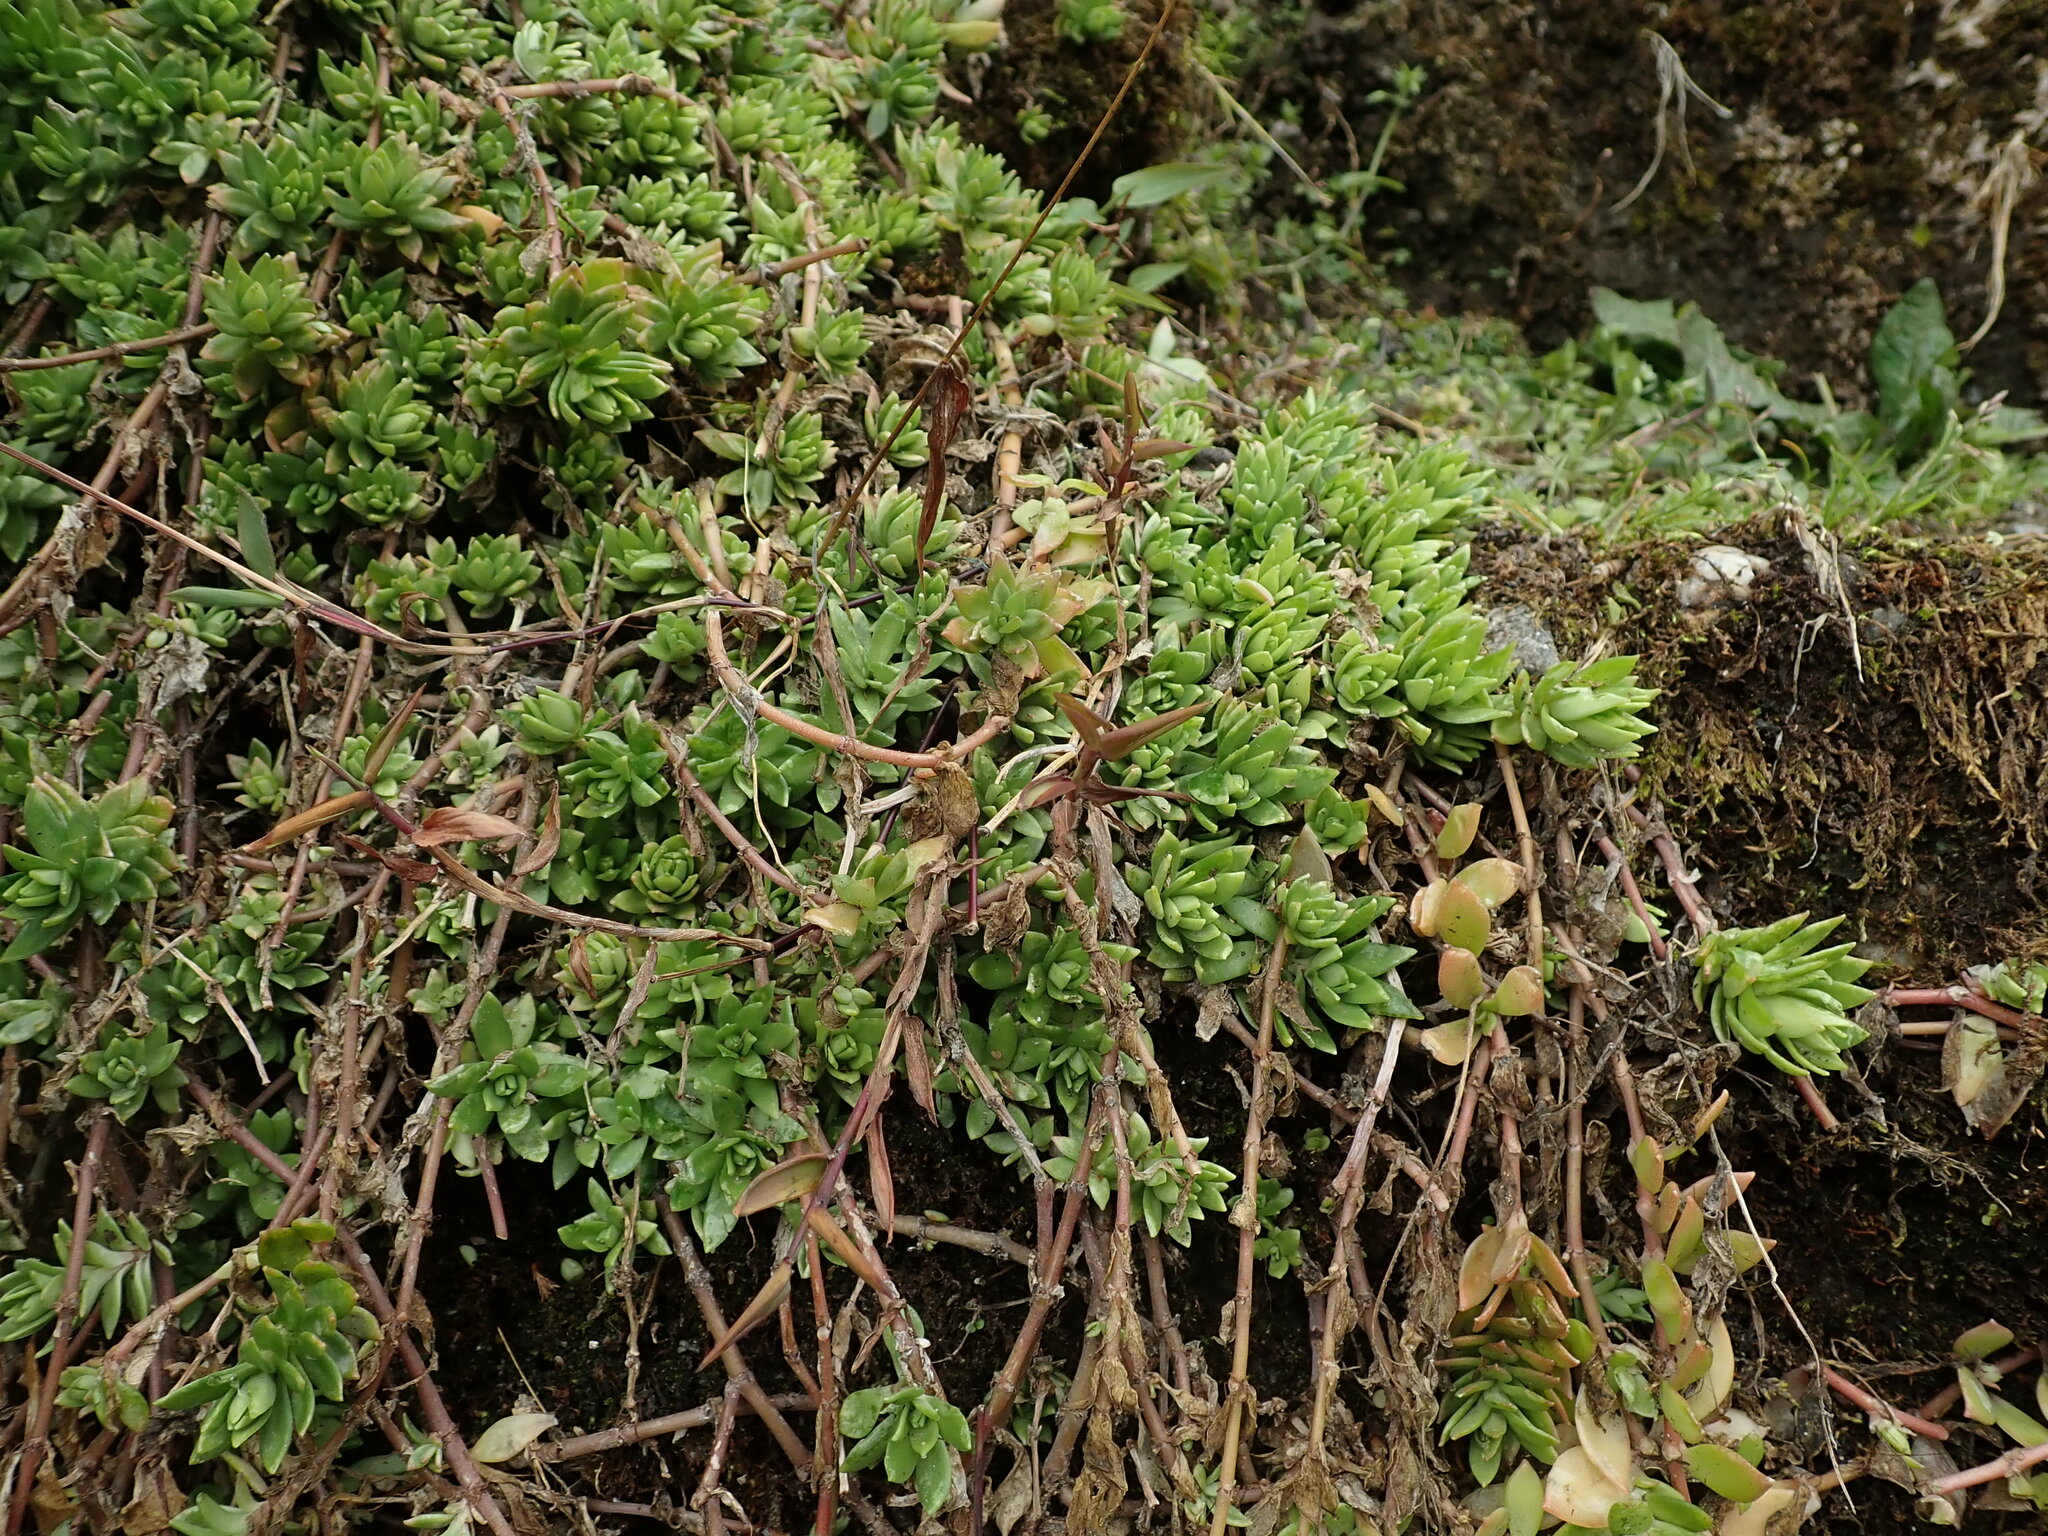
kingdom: Plantae
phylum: Tracheophyta
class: Magnoliopsida
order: Saxifragales
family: Crassulaceae
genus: Sedum
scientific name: Sedum sarmentosum
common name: Stringy stonecrop
